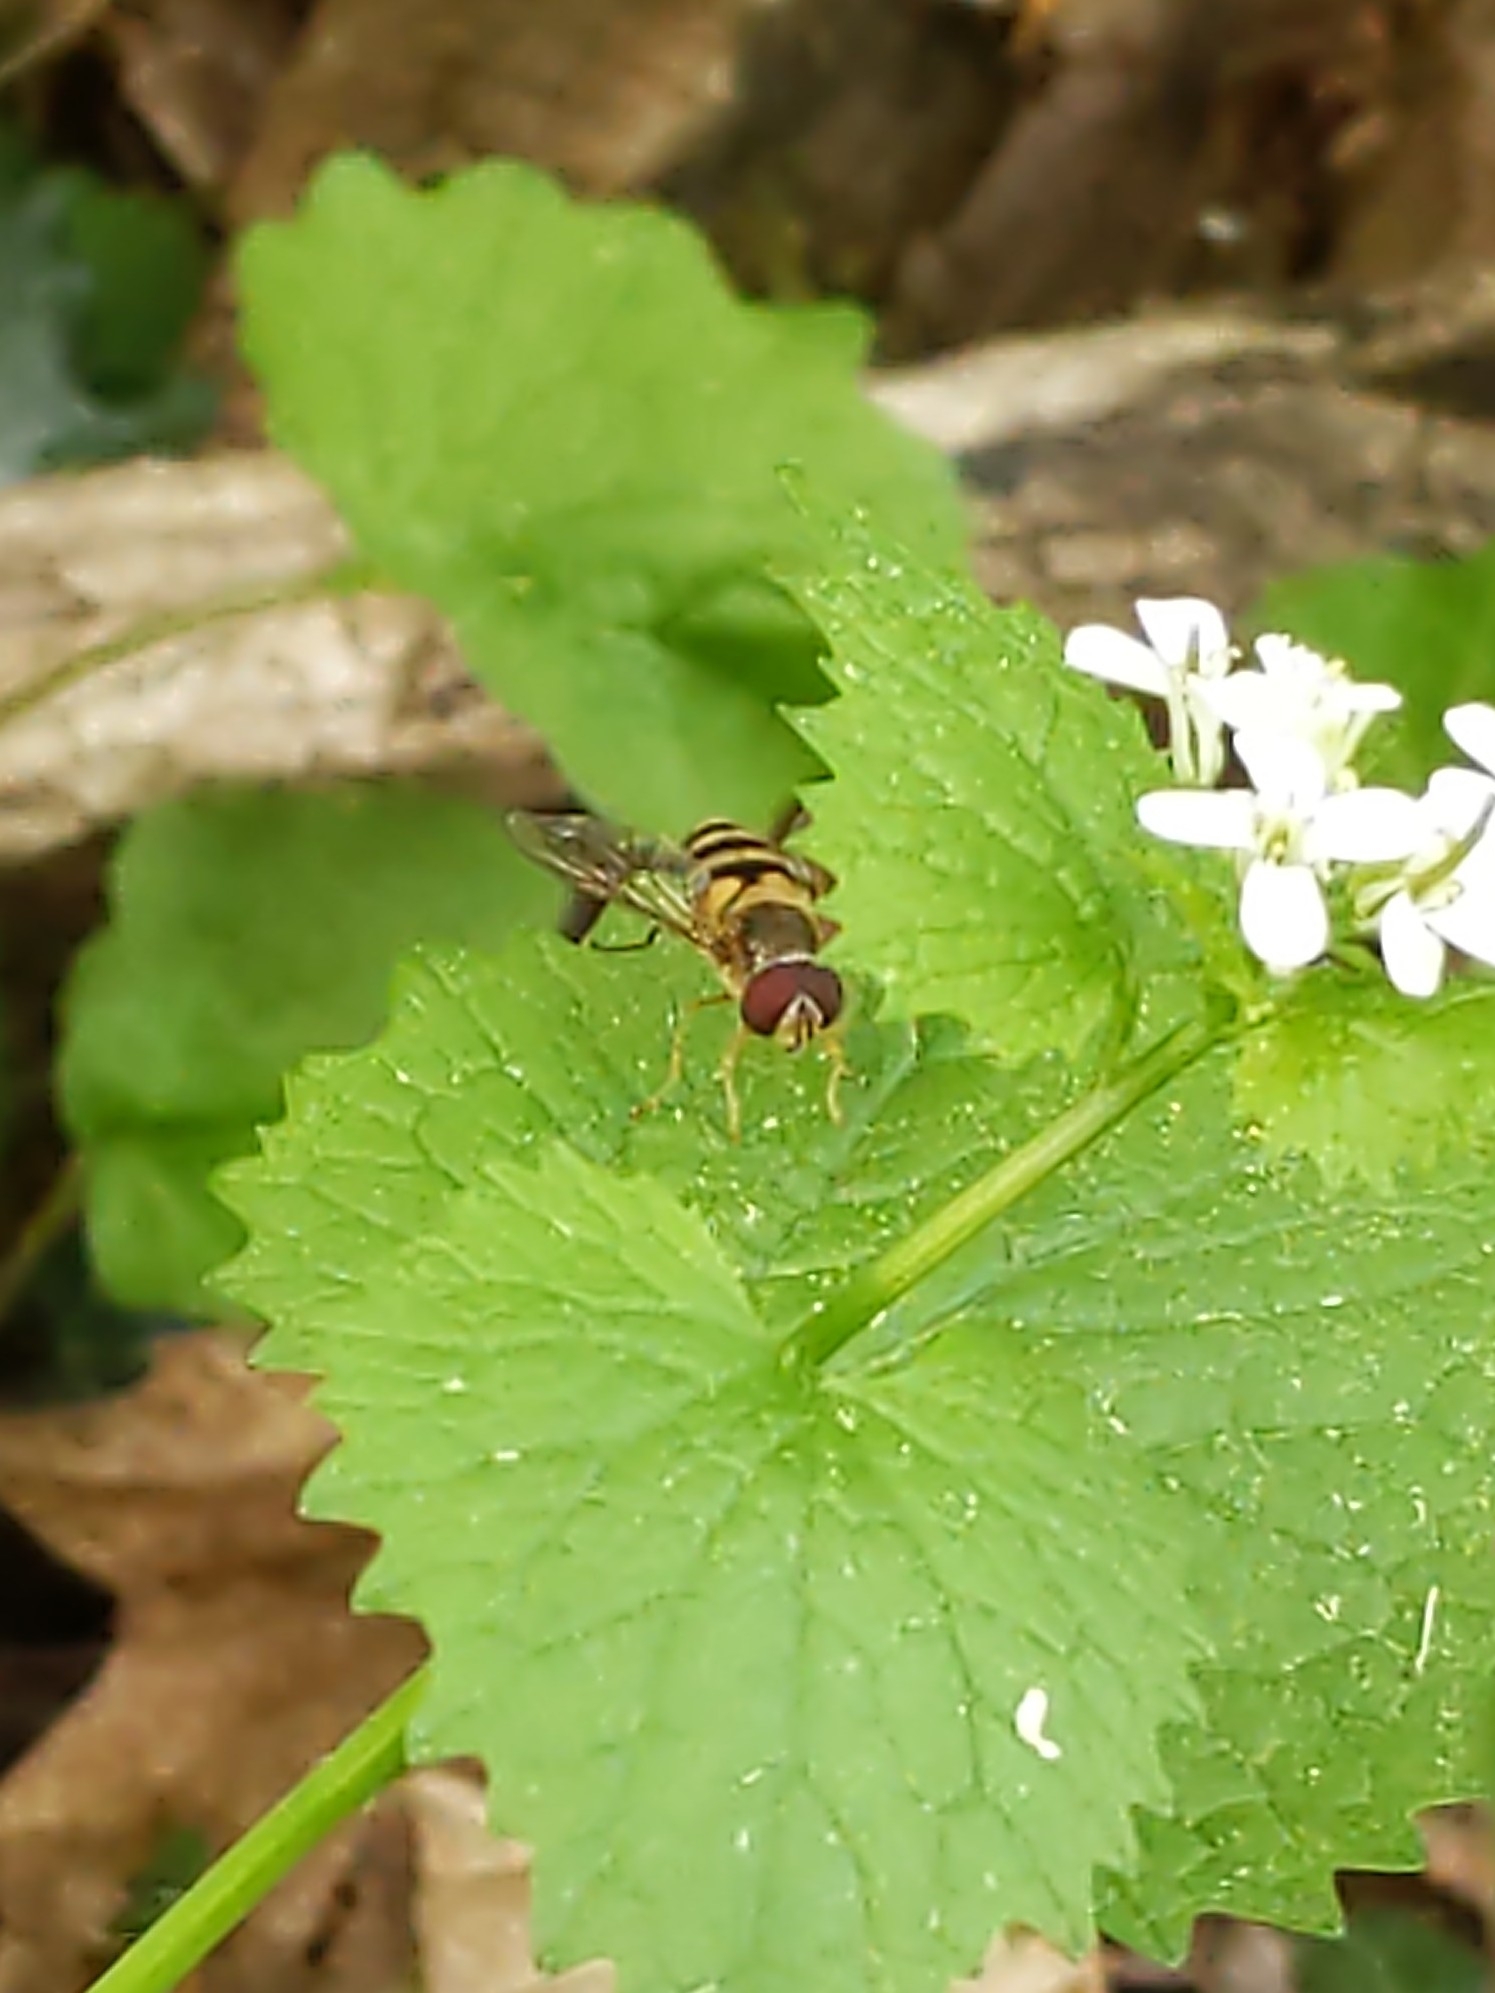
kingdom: Animalia
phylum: Arthropoda
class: Insecta
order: Diptera
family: Syrphidae
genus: Syrphus
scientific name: Syrphus
